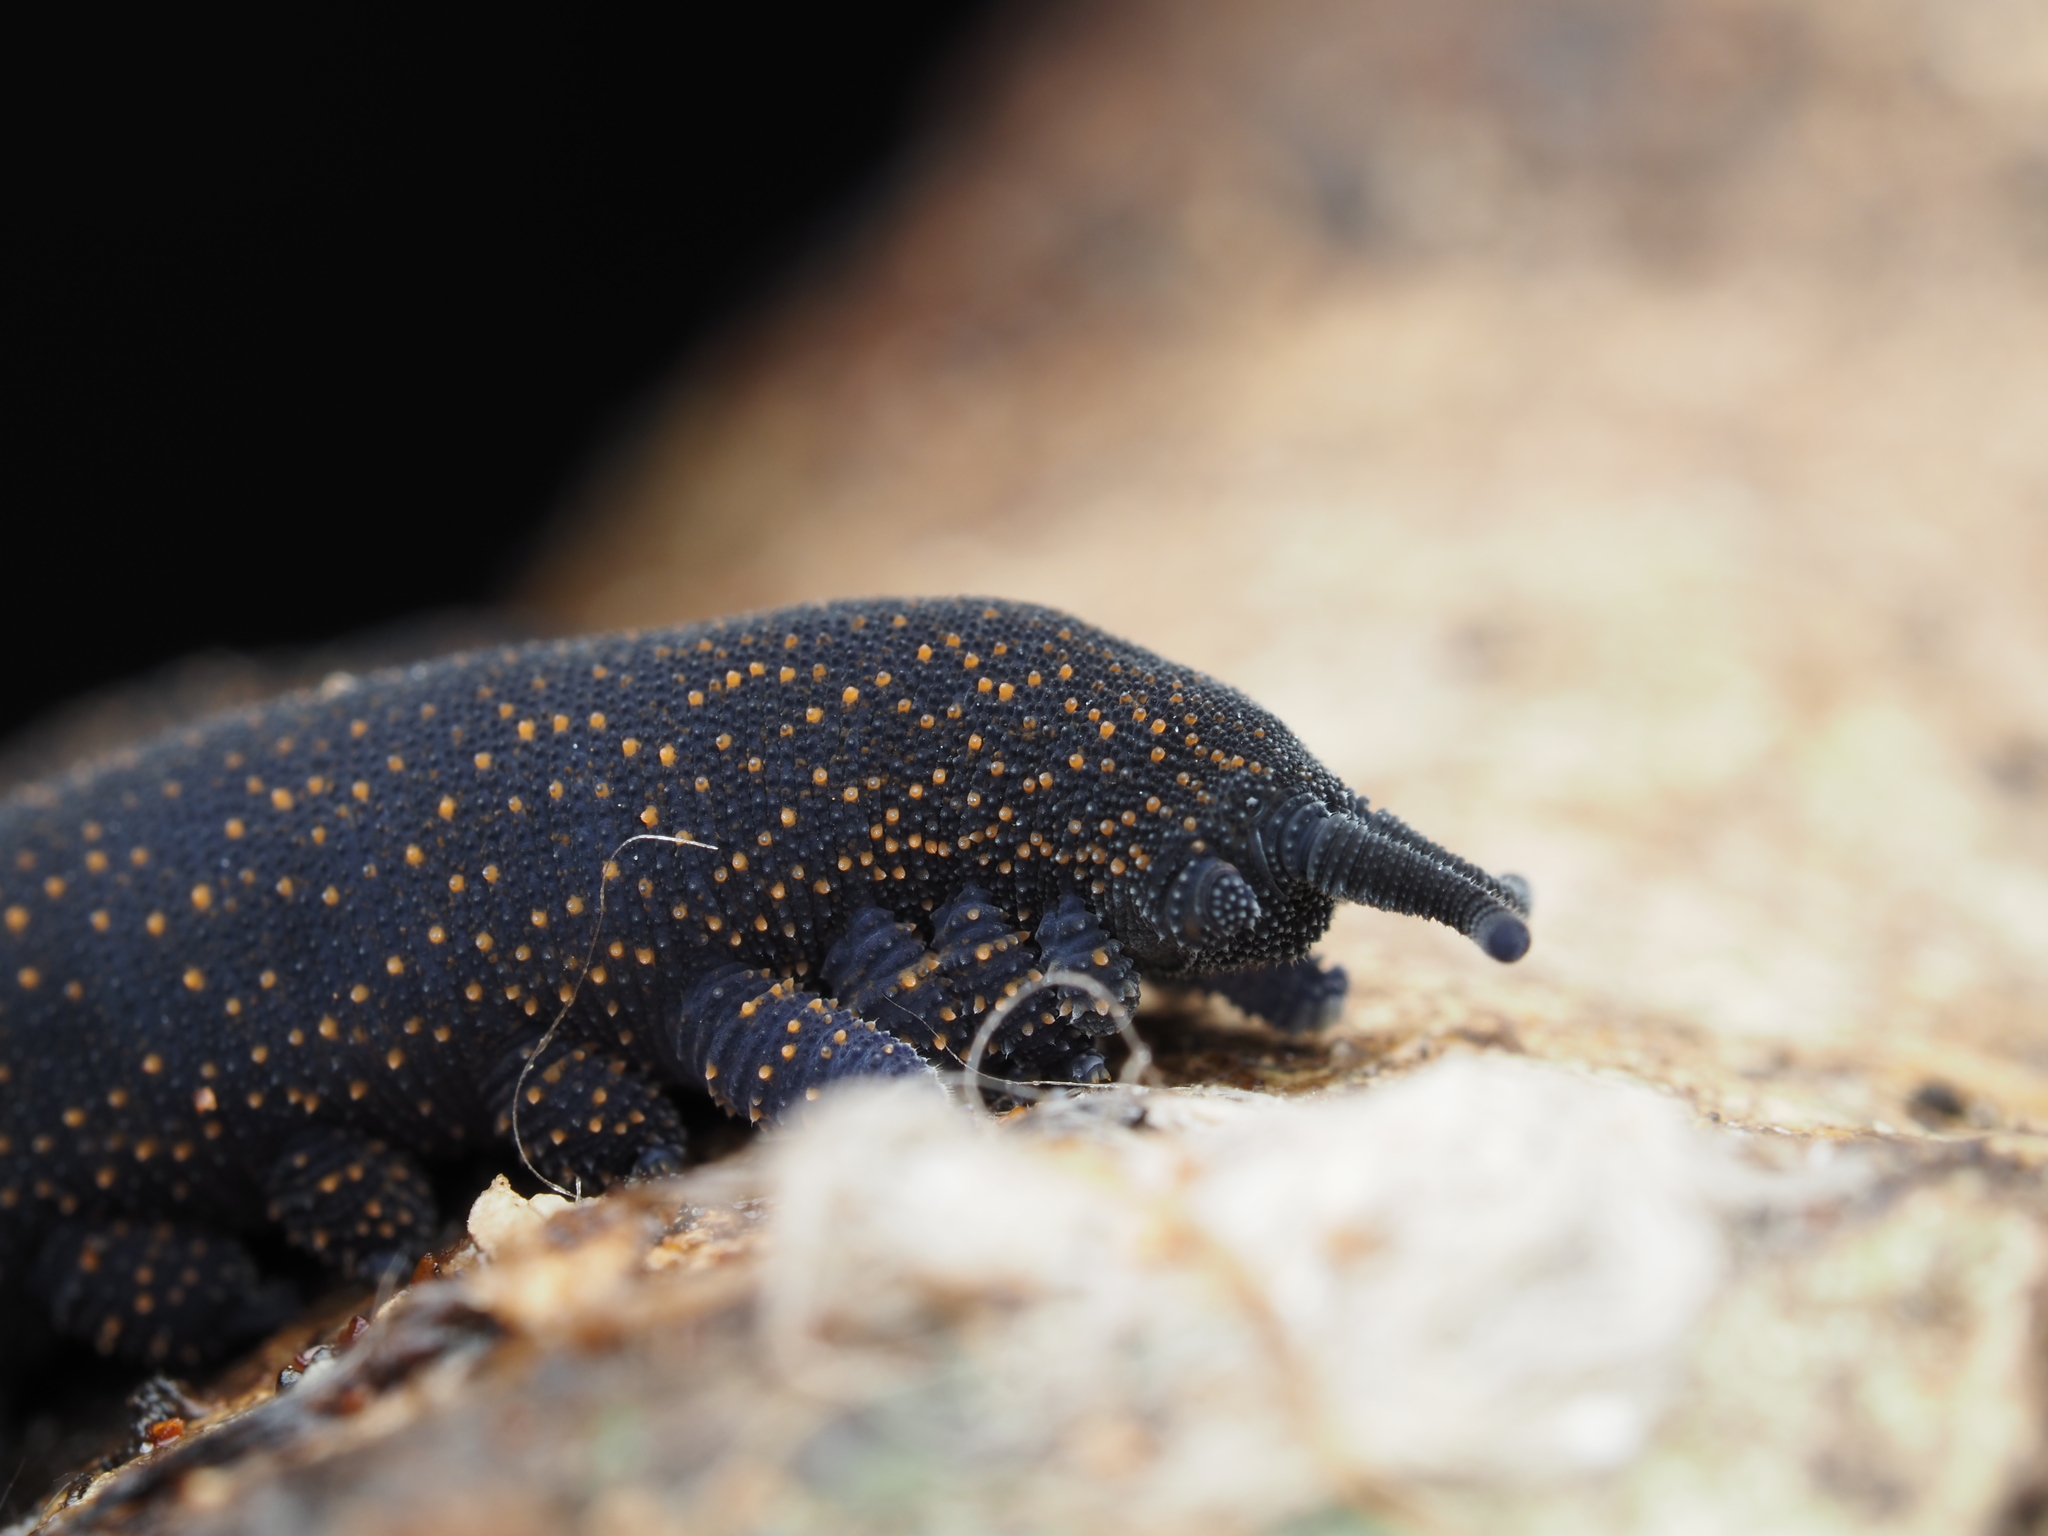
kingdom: Animalia
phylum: Onychophora
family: Peripatopsidae
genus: Peripatoides
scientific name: Peripatoides suteri
